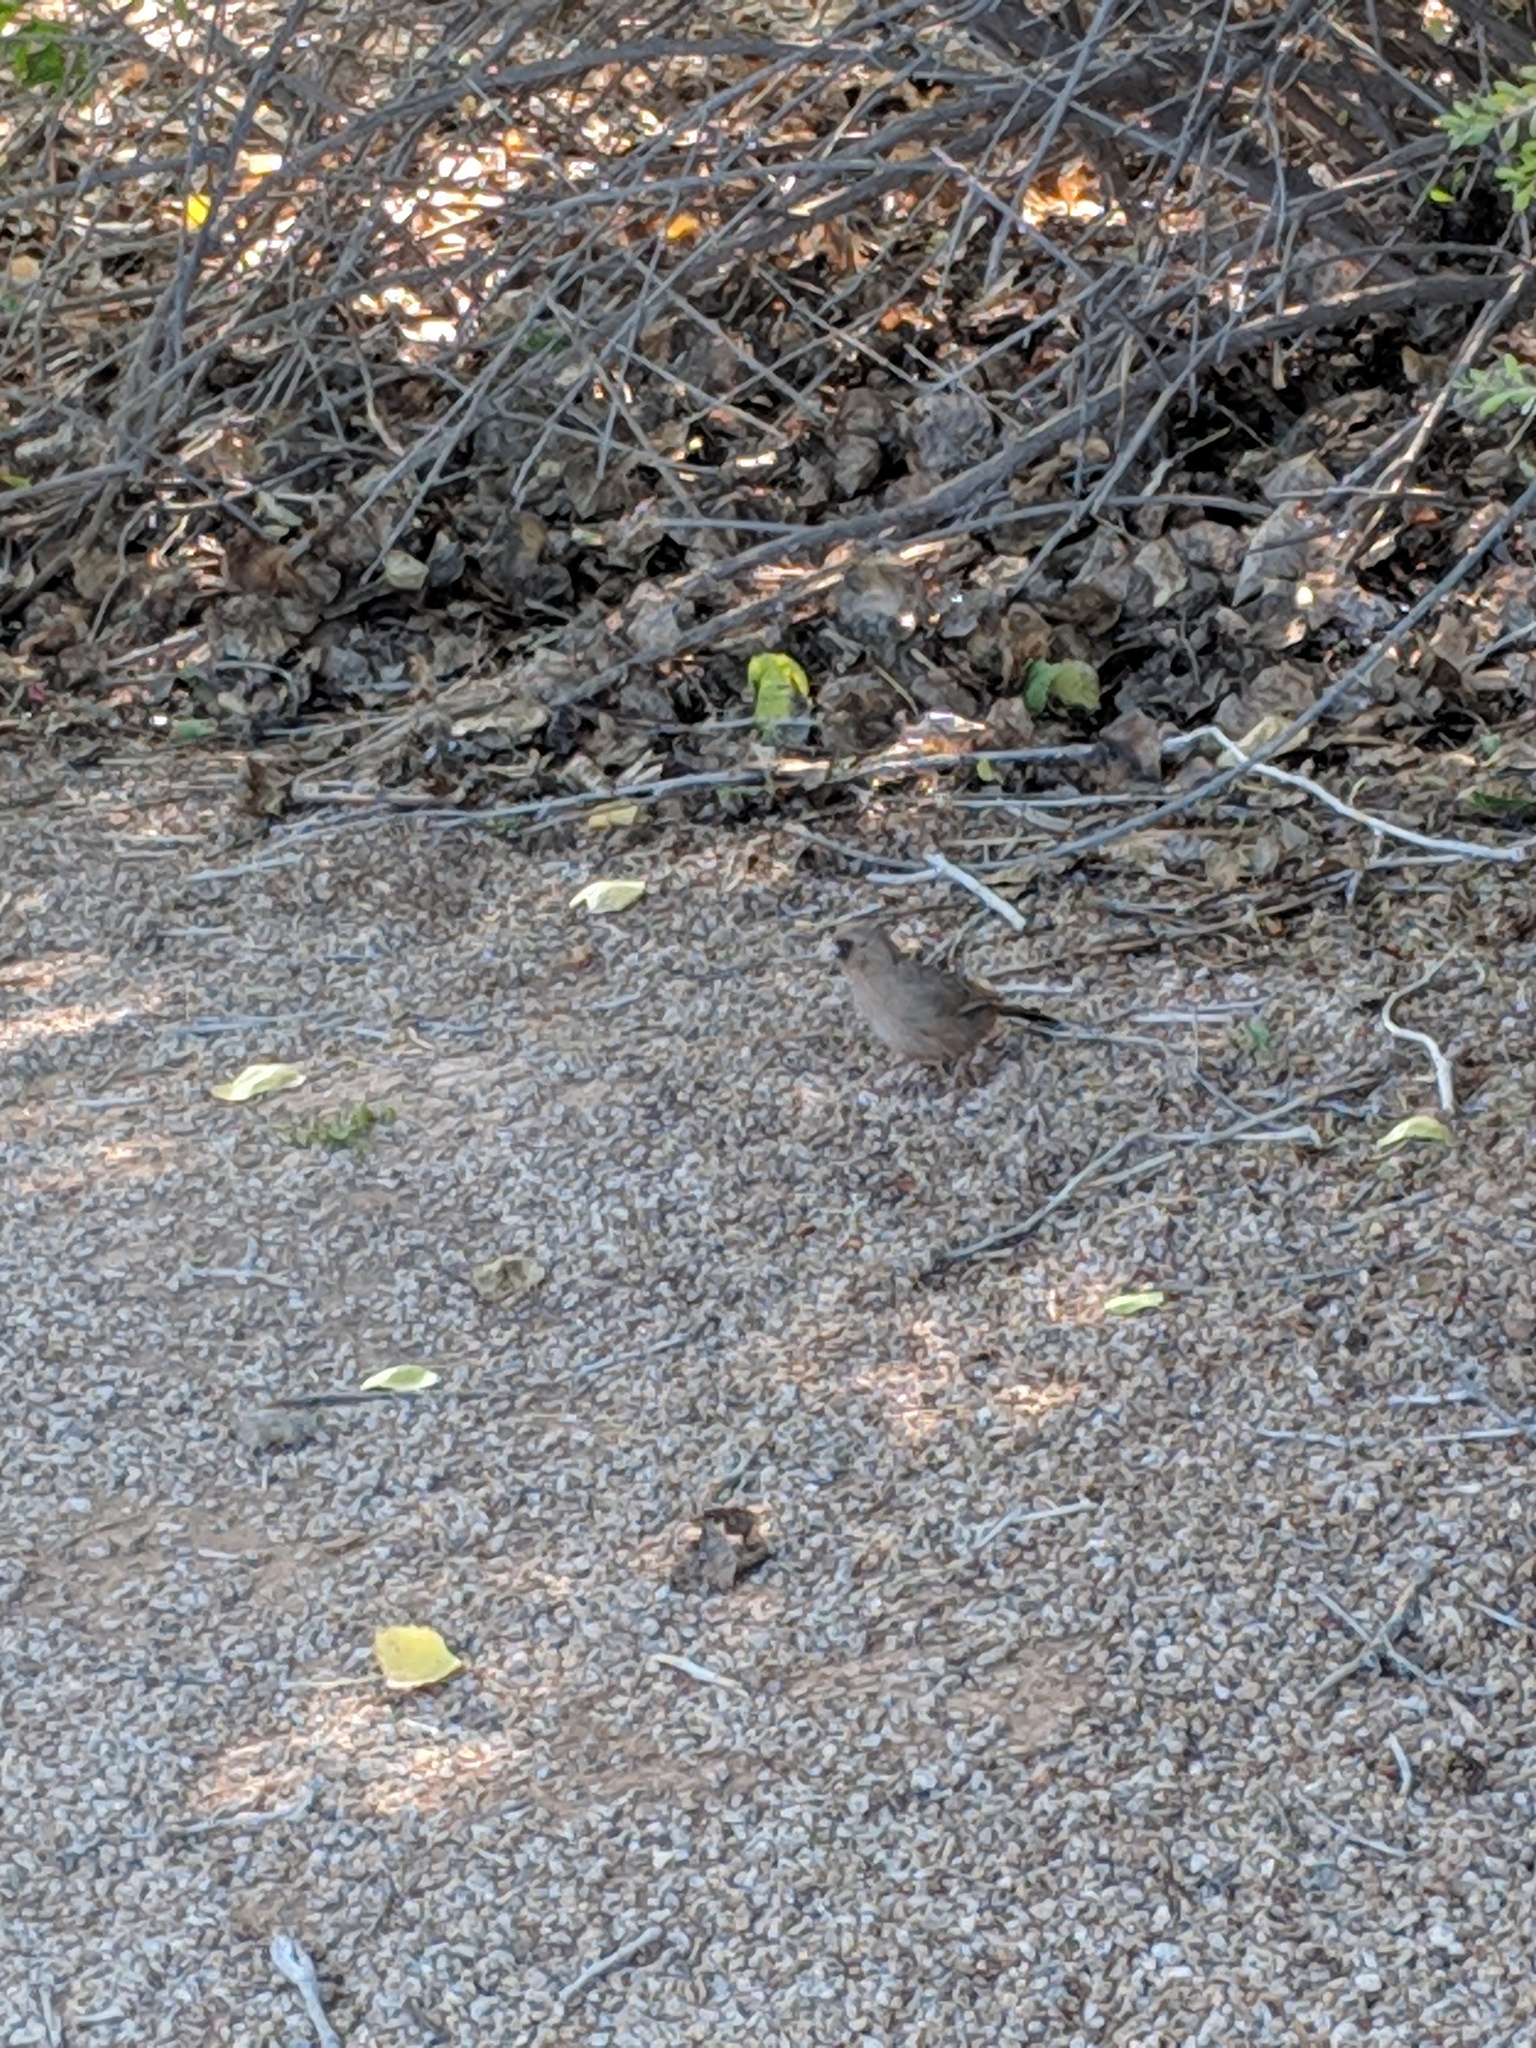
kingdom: Animalia
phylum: Chordata
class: Aves
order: Passeriformes
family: Passerellidae
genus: Melozone
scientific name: Melozone aberti
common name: Abert's towhee
